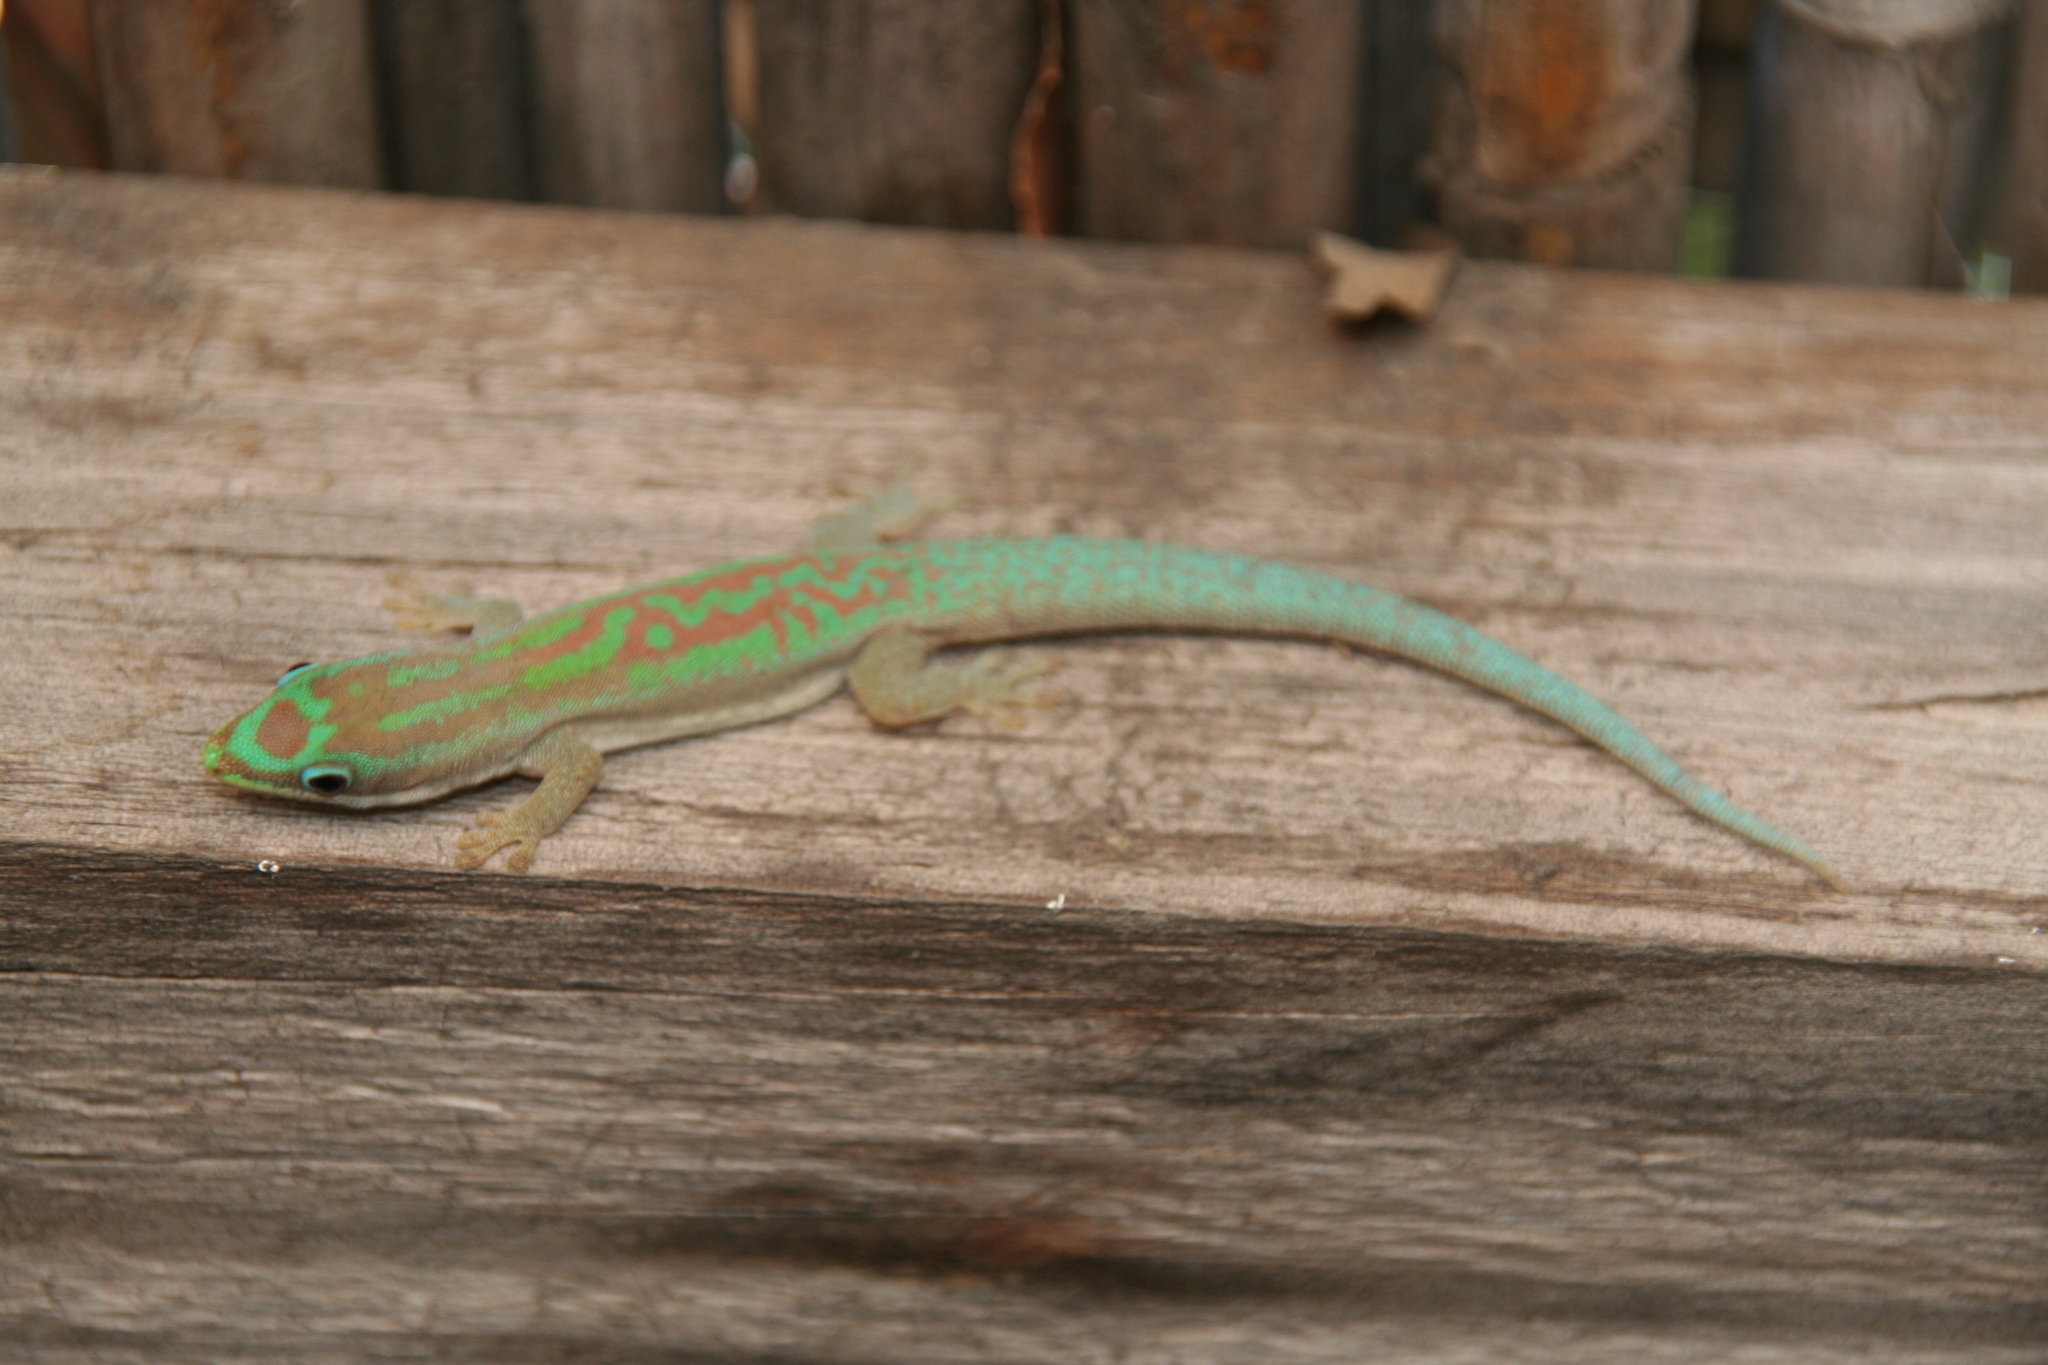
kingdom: Animalia
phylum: Chordata
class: Squamata
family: Gekkonidae
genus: Phelsuma
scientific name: Phelsuma modesta
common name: Modest day gecko
